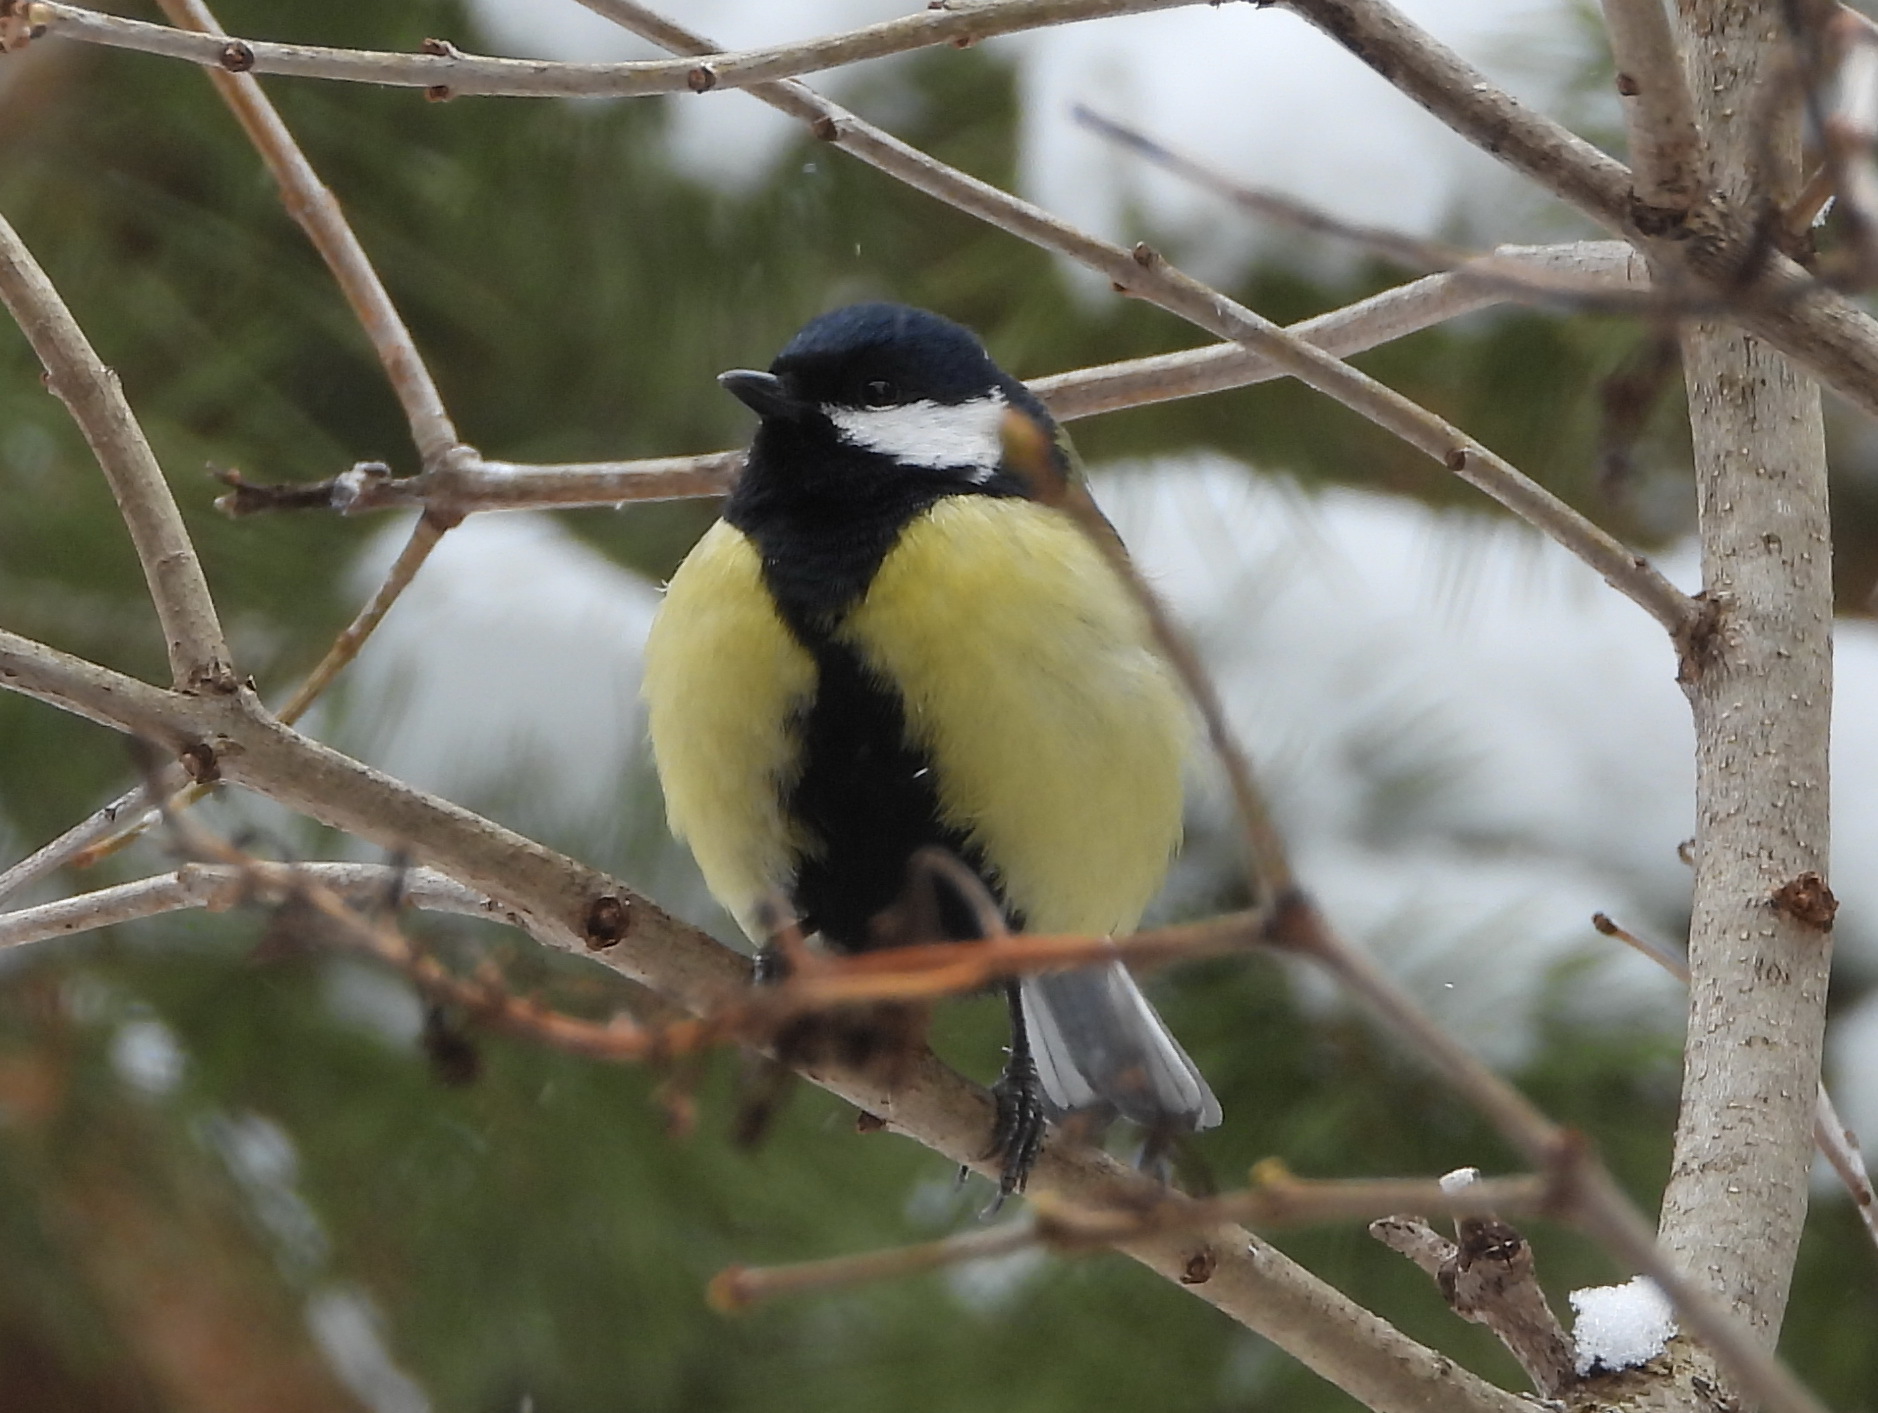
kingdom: Animalia
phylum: Chordata
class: Aves
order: Passeriformes
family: Paridae
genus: Parus
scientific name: Parus major
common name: Great tit
